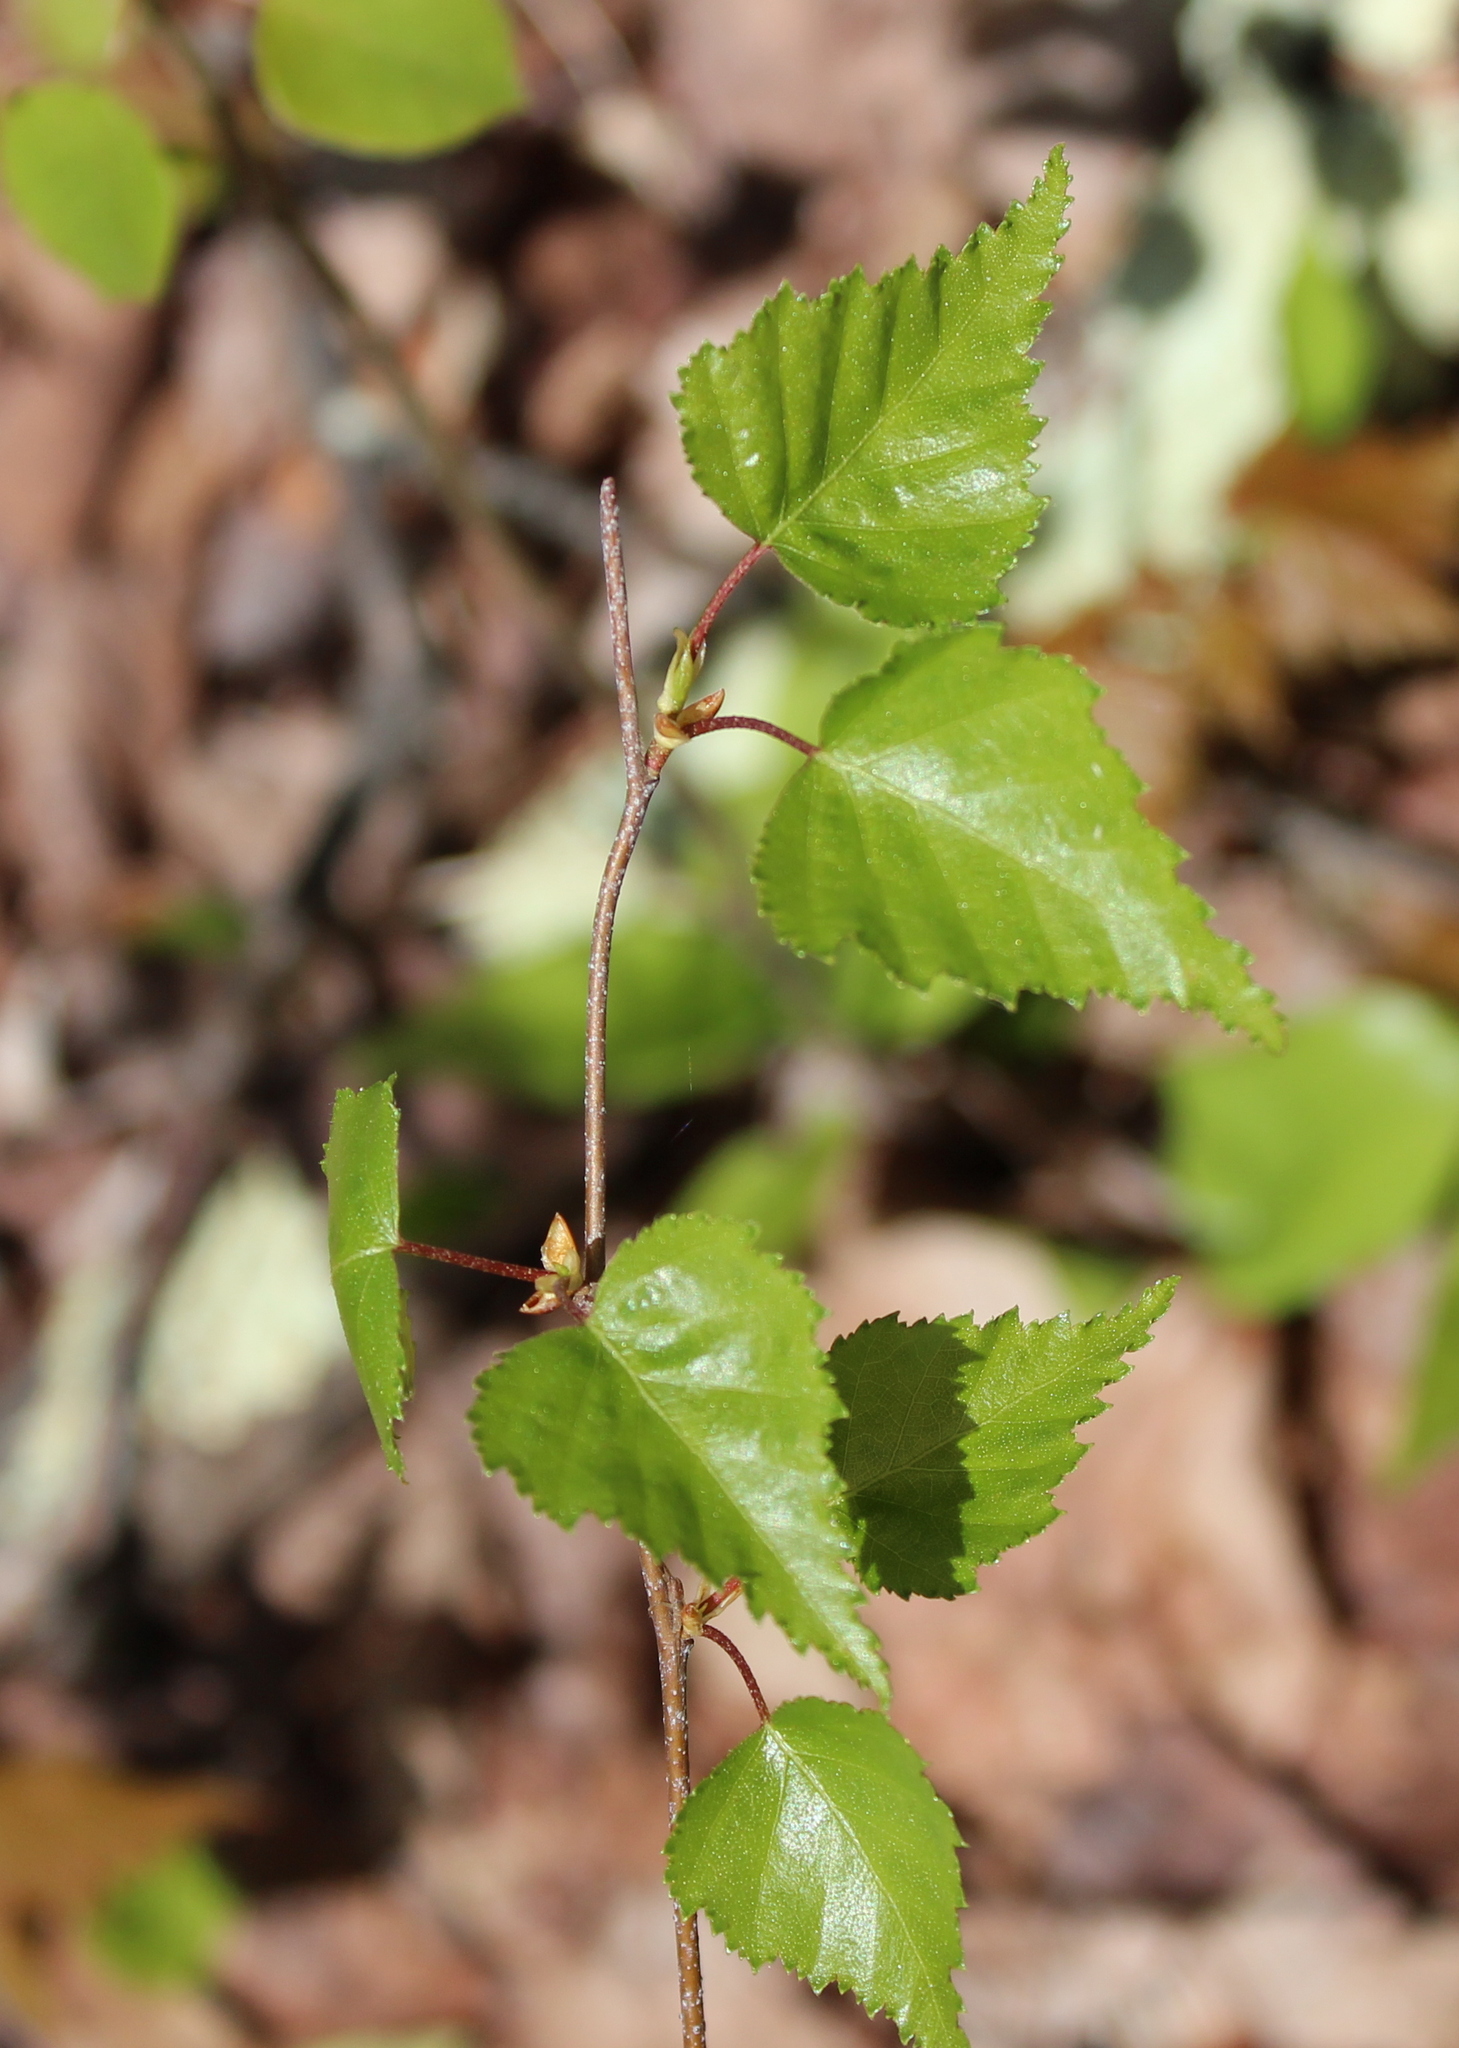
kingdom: Plantae
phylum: Tracheophyta
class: Magnoliopsida
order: Fagales
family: Betulaceae
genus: Betula
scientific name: Betula populifolia
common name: Fire birch
